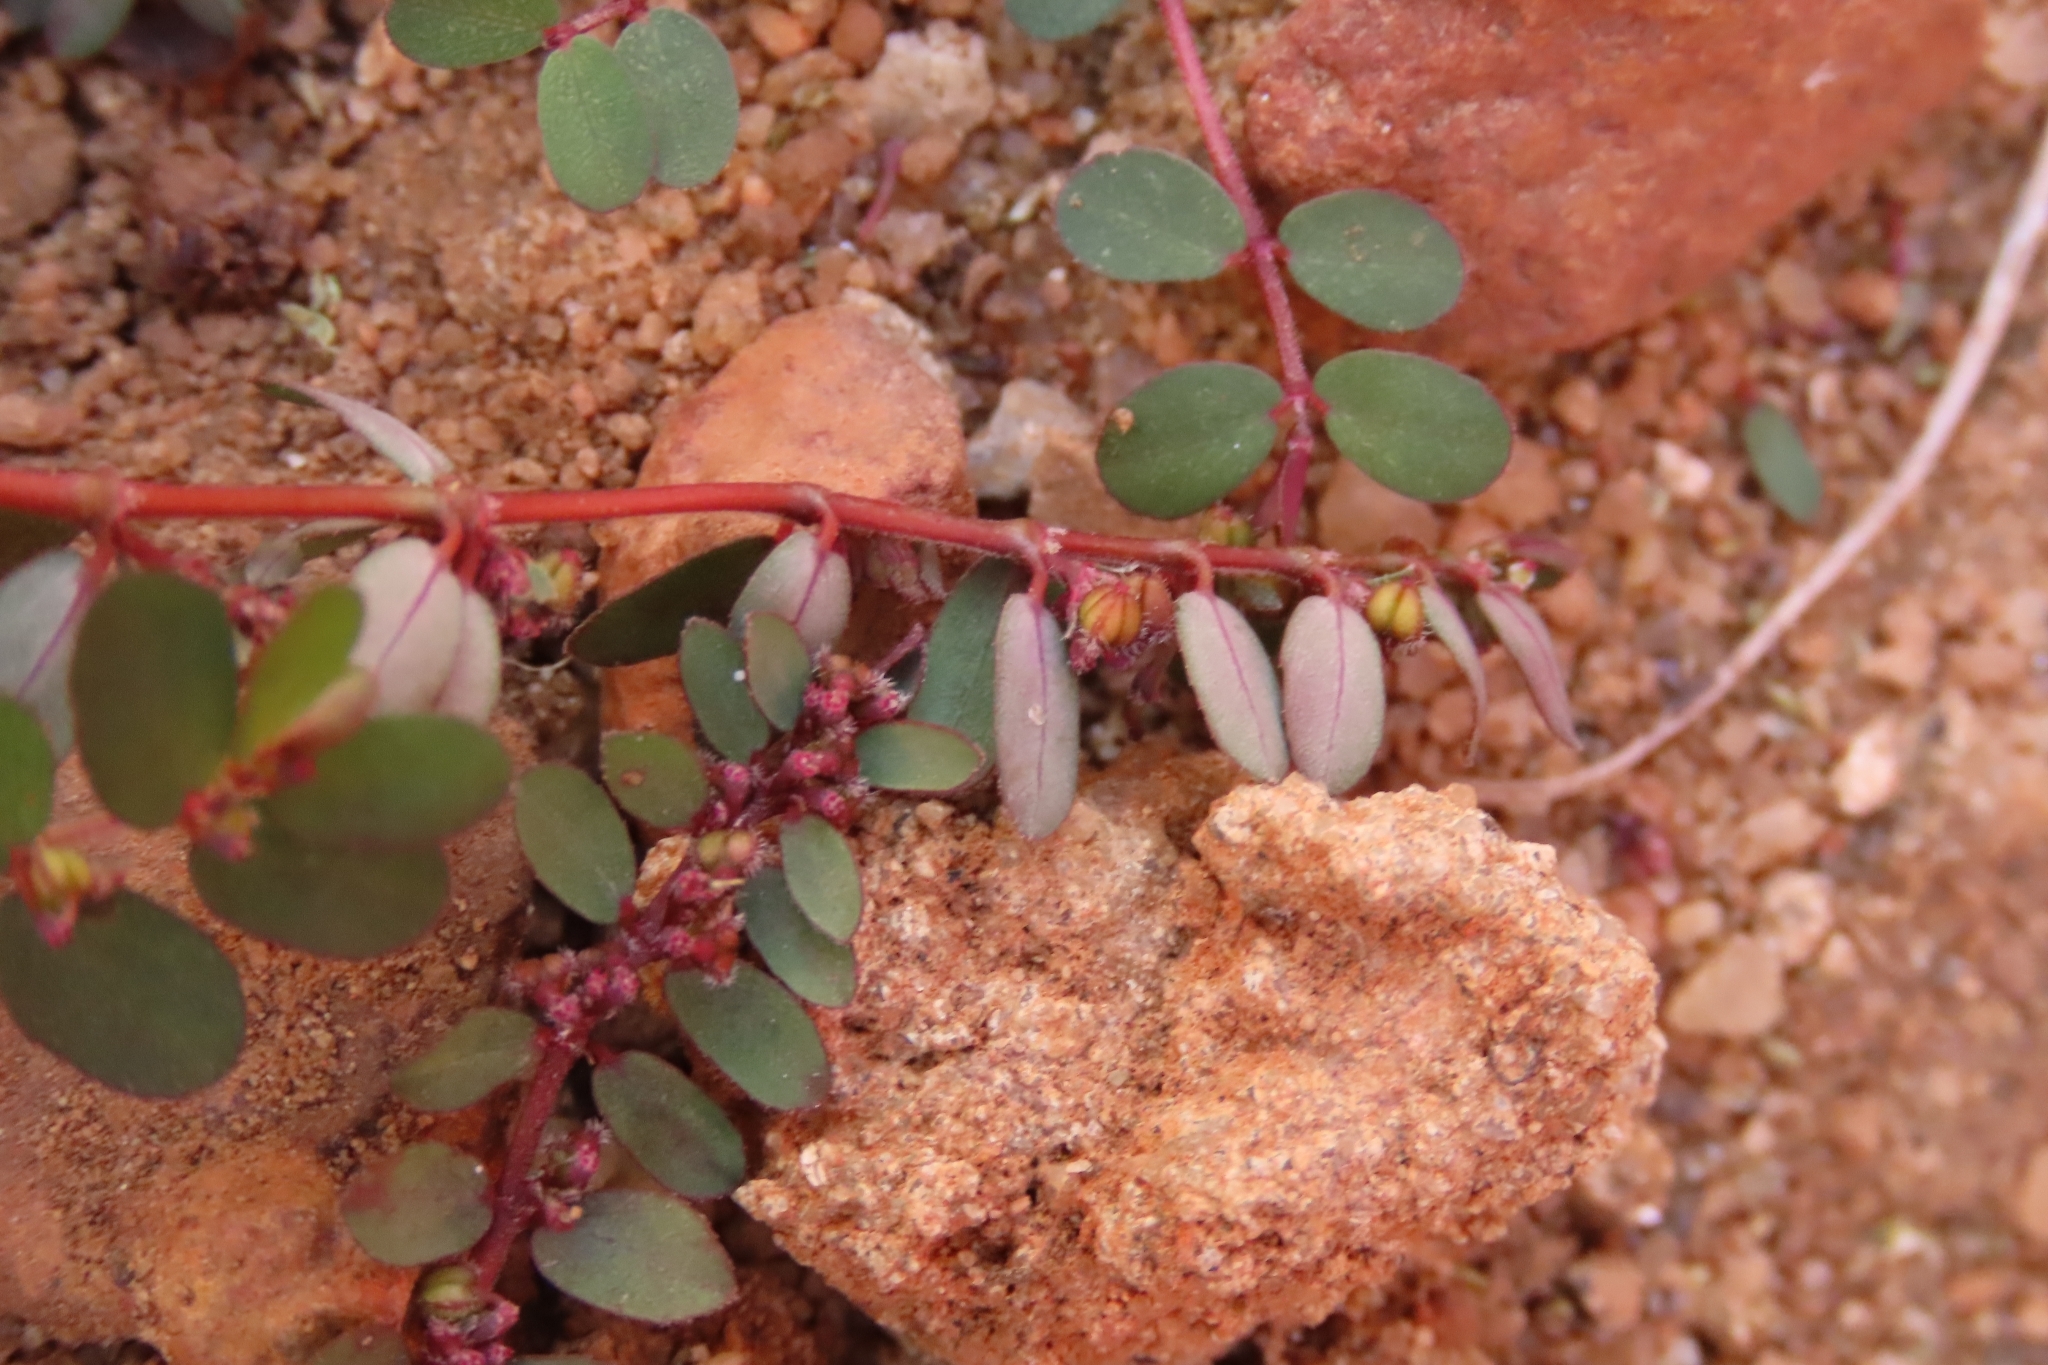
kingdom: Plantae
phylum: Tracheophyta
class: Magnoliopsida
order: Malpighiales
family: Euphorbiaceae
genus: Euphorbia
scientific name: Euphorbia prostrata
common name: Prostrate sandmat
